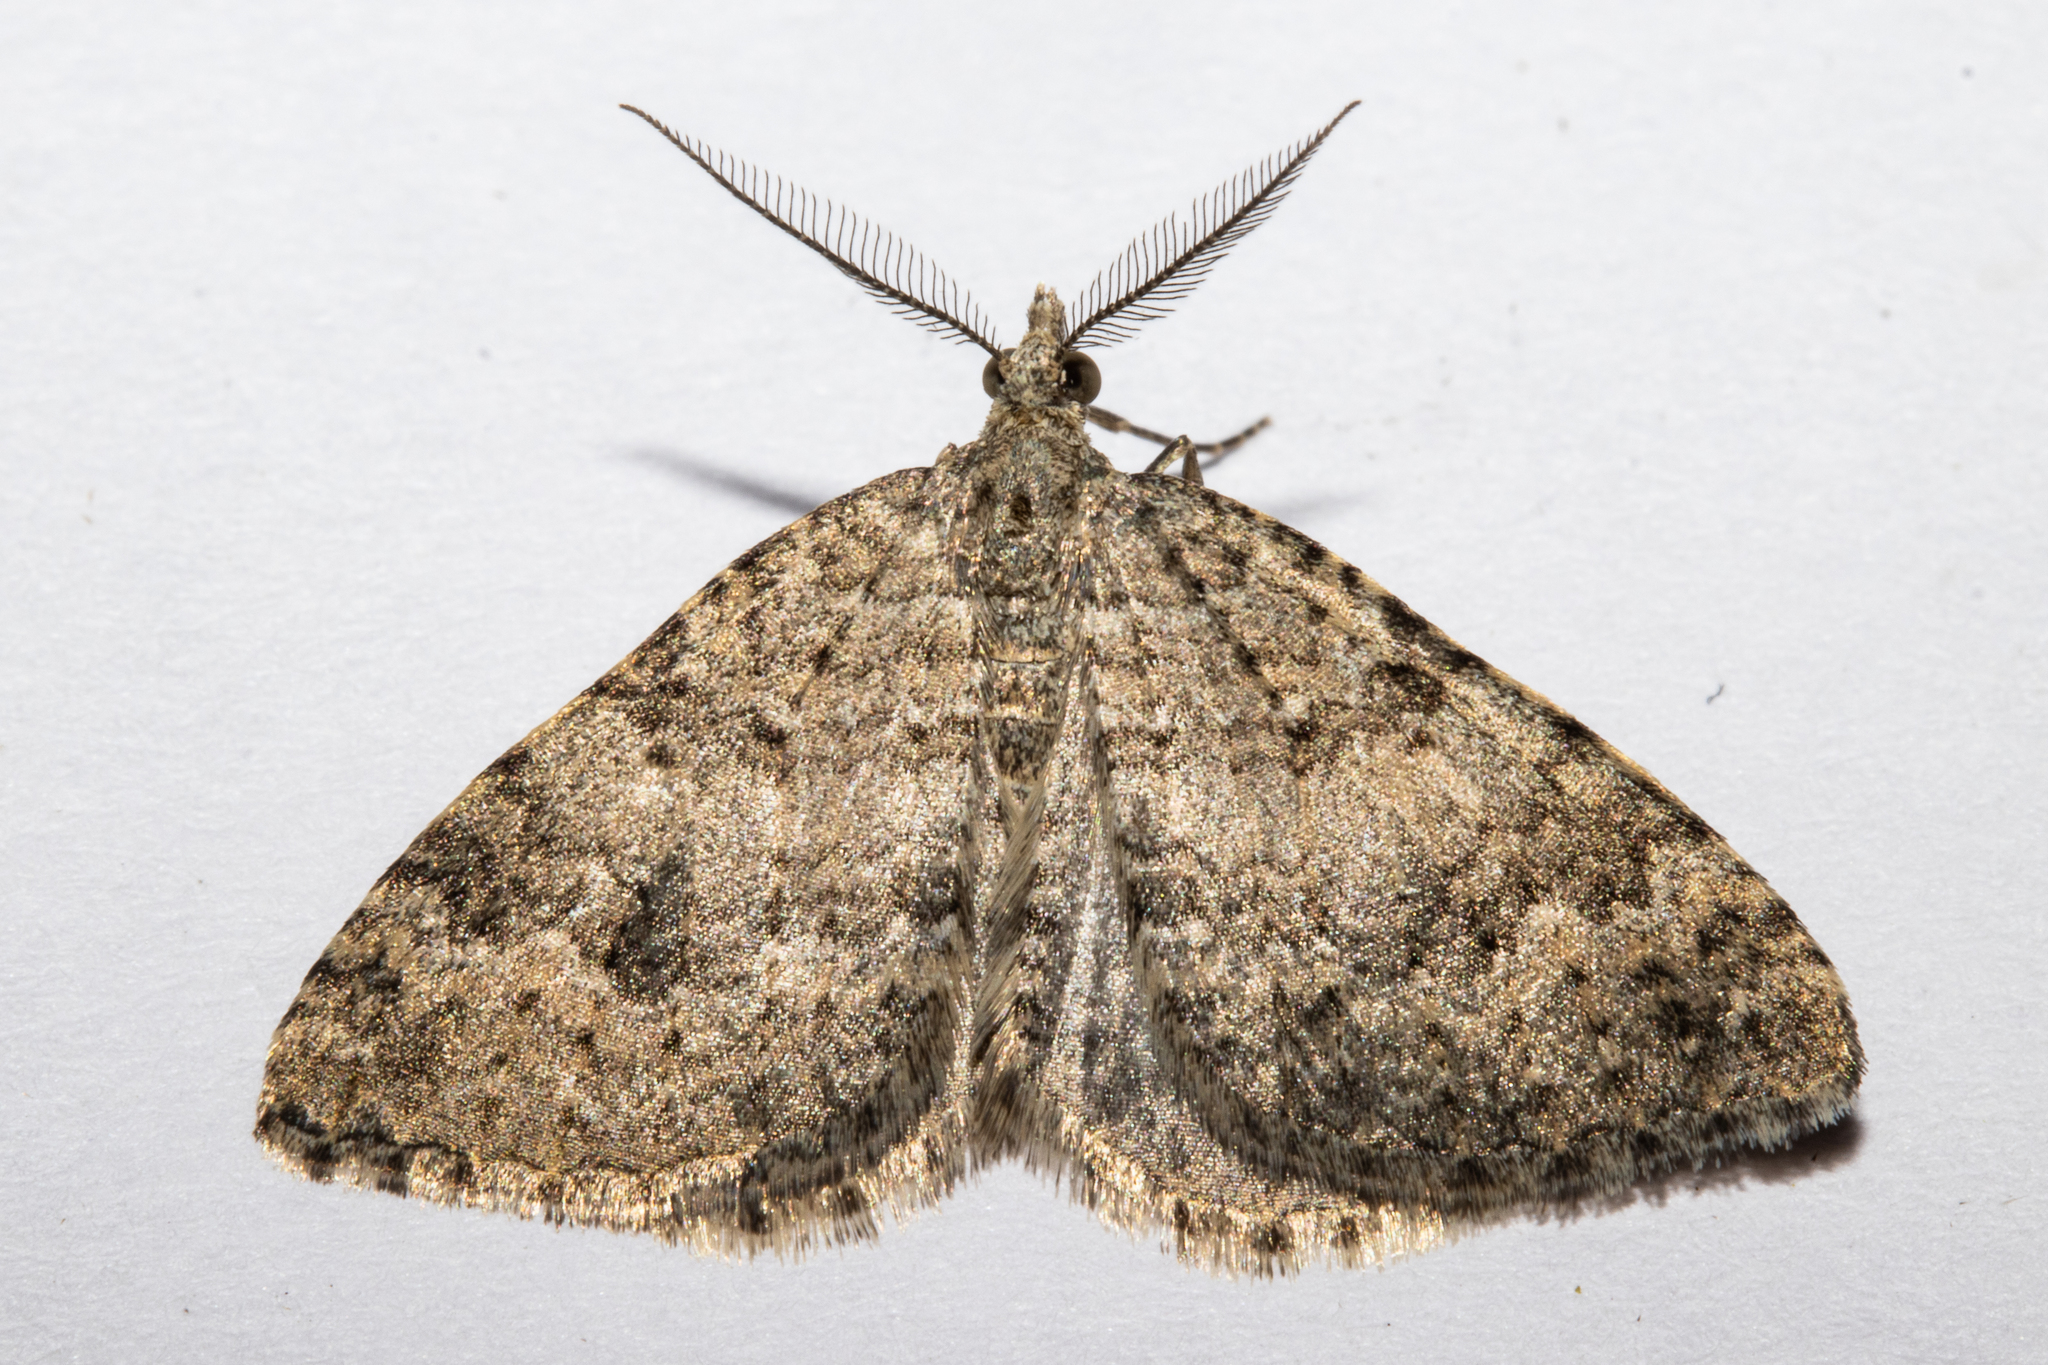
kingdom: Animalia
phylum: Arthropoda
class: Insecta
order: Lepidoptera
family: Geometridae
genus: Helastia
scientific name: Helastia corcularia
